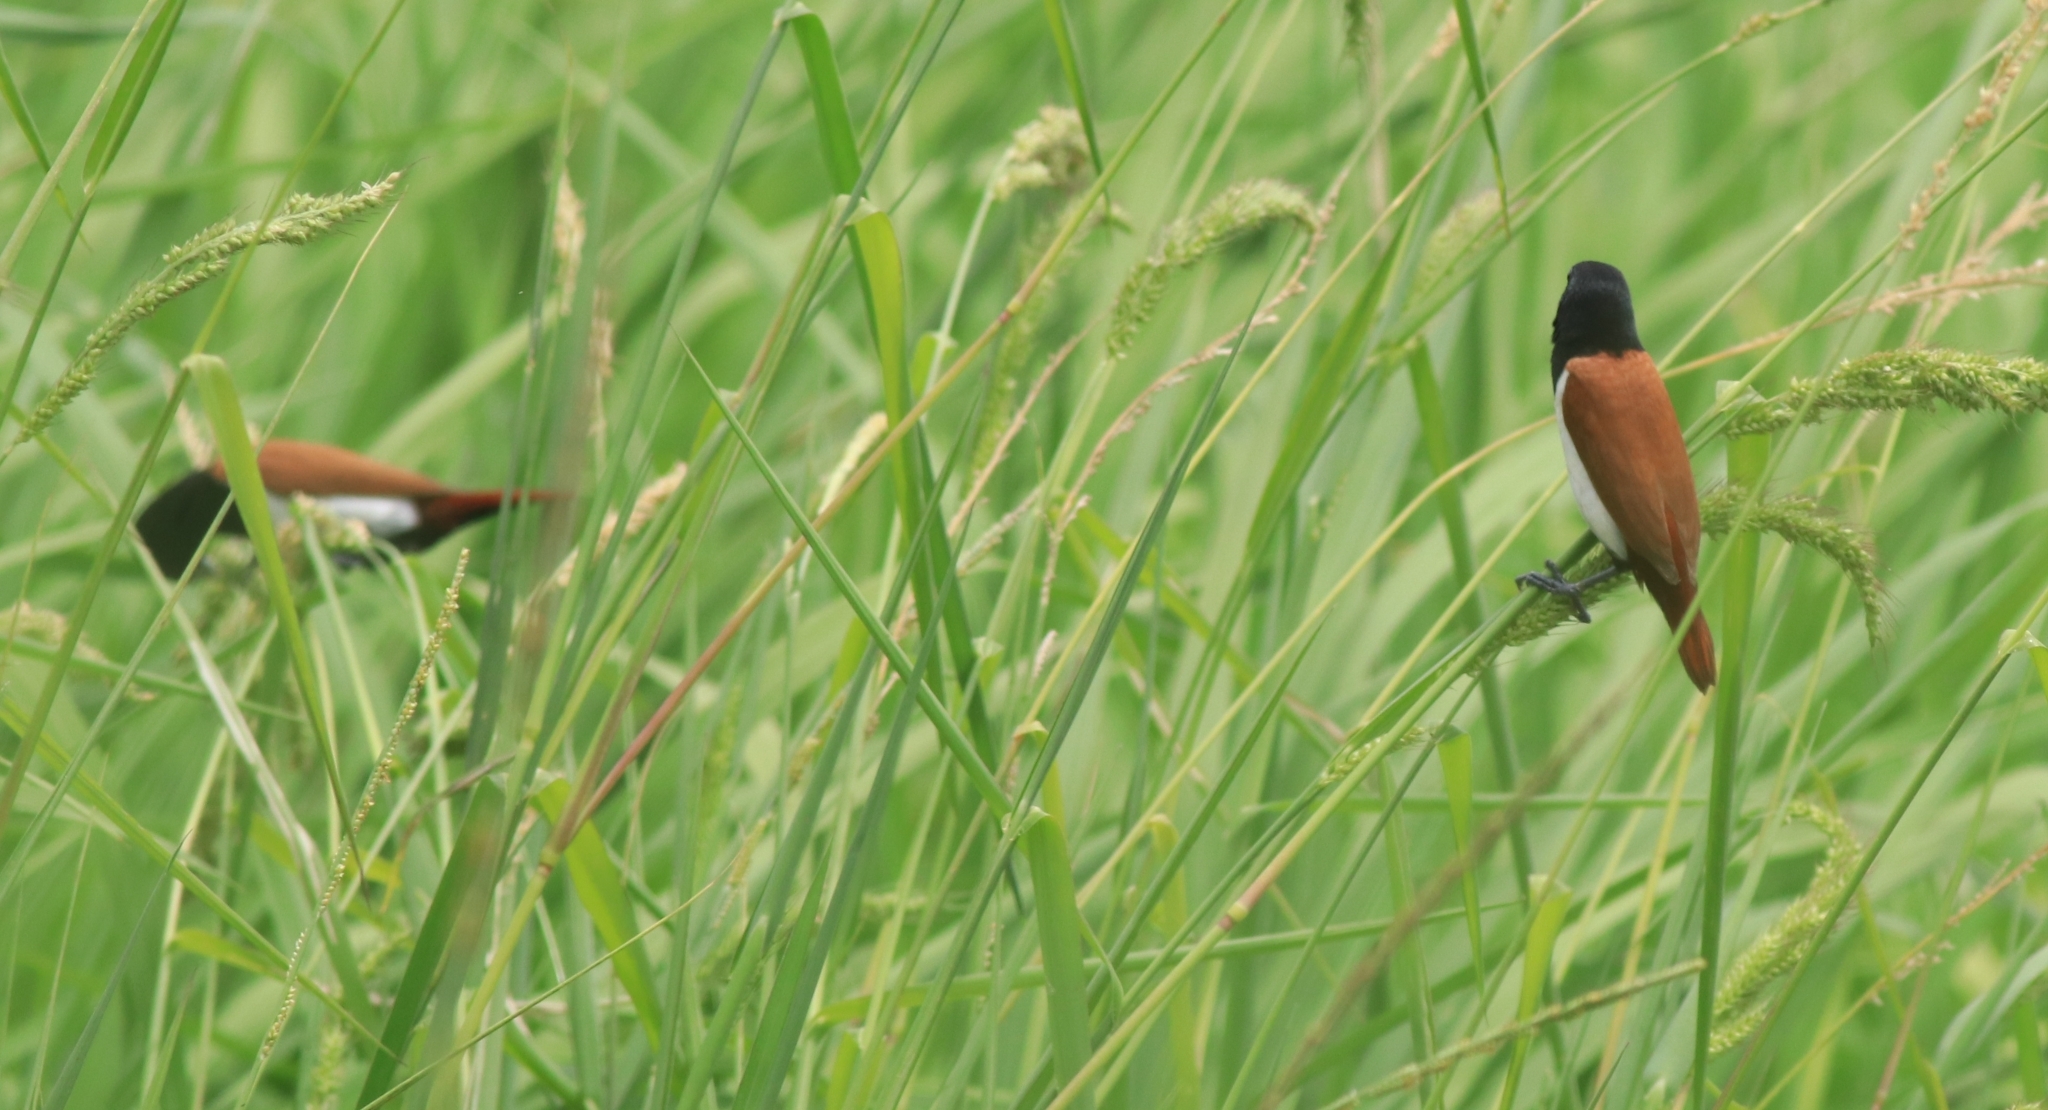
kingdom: Animalia
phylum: Chordata
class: Aves
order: Passeriformes
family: Estrildidae
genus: Lonchura
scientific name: Lonchura malacca
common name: Tricolored munia
